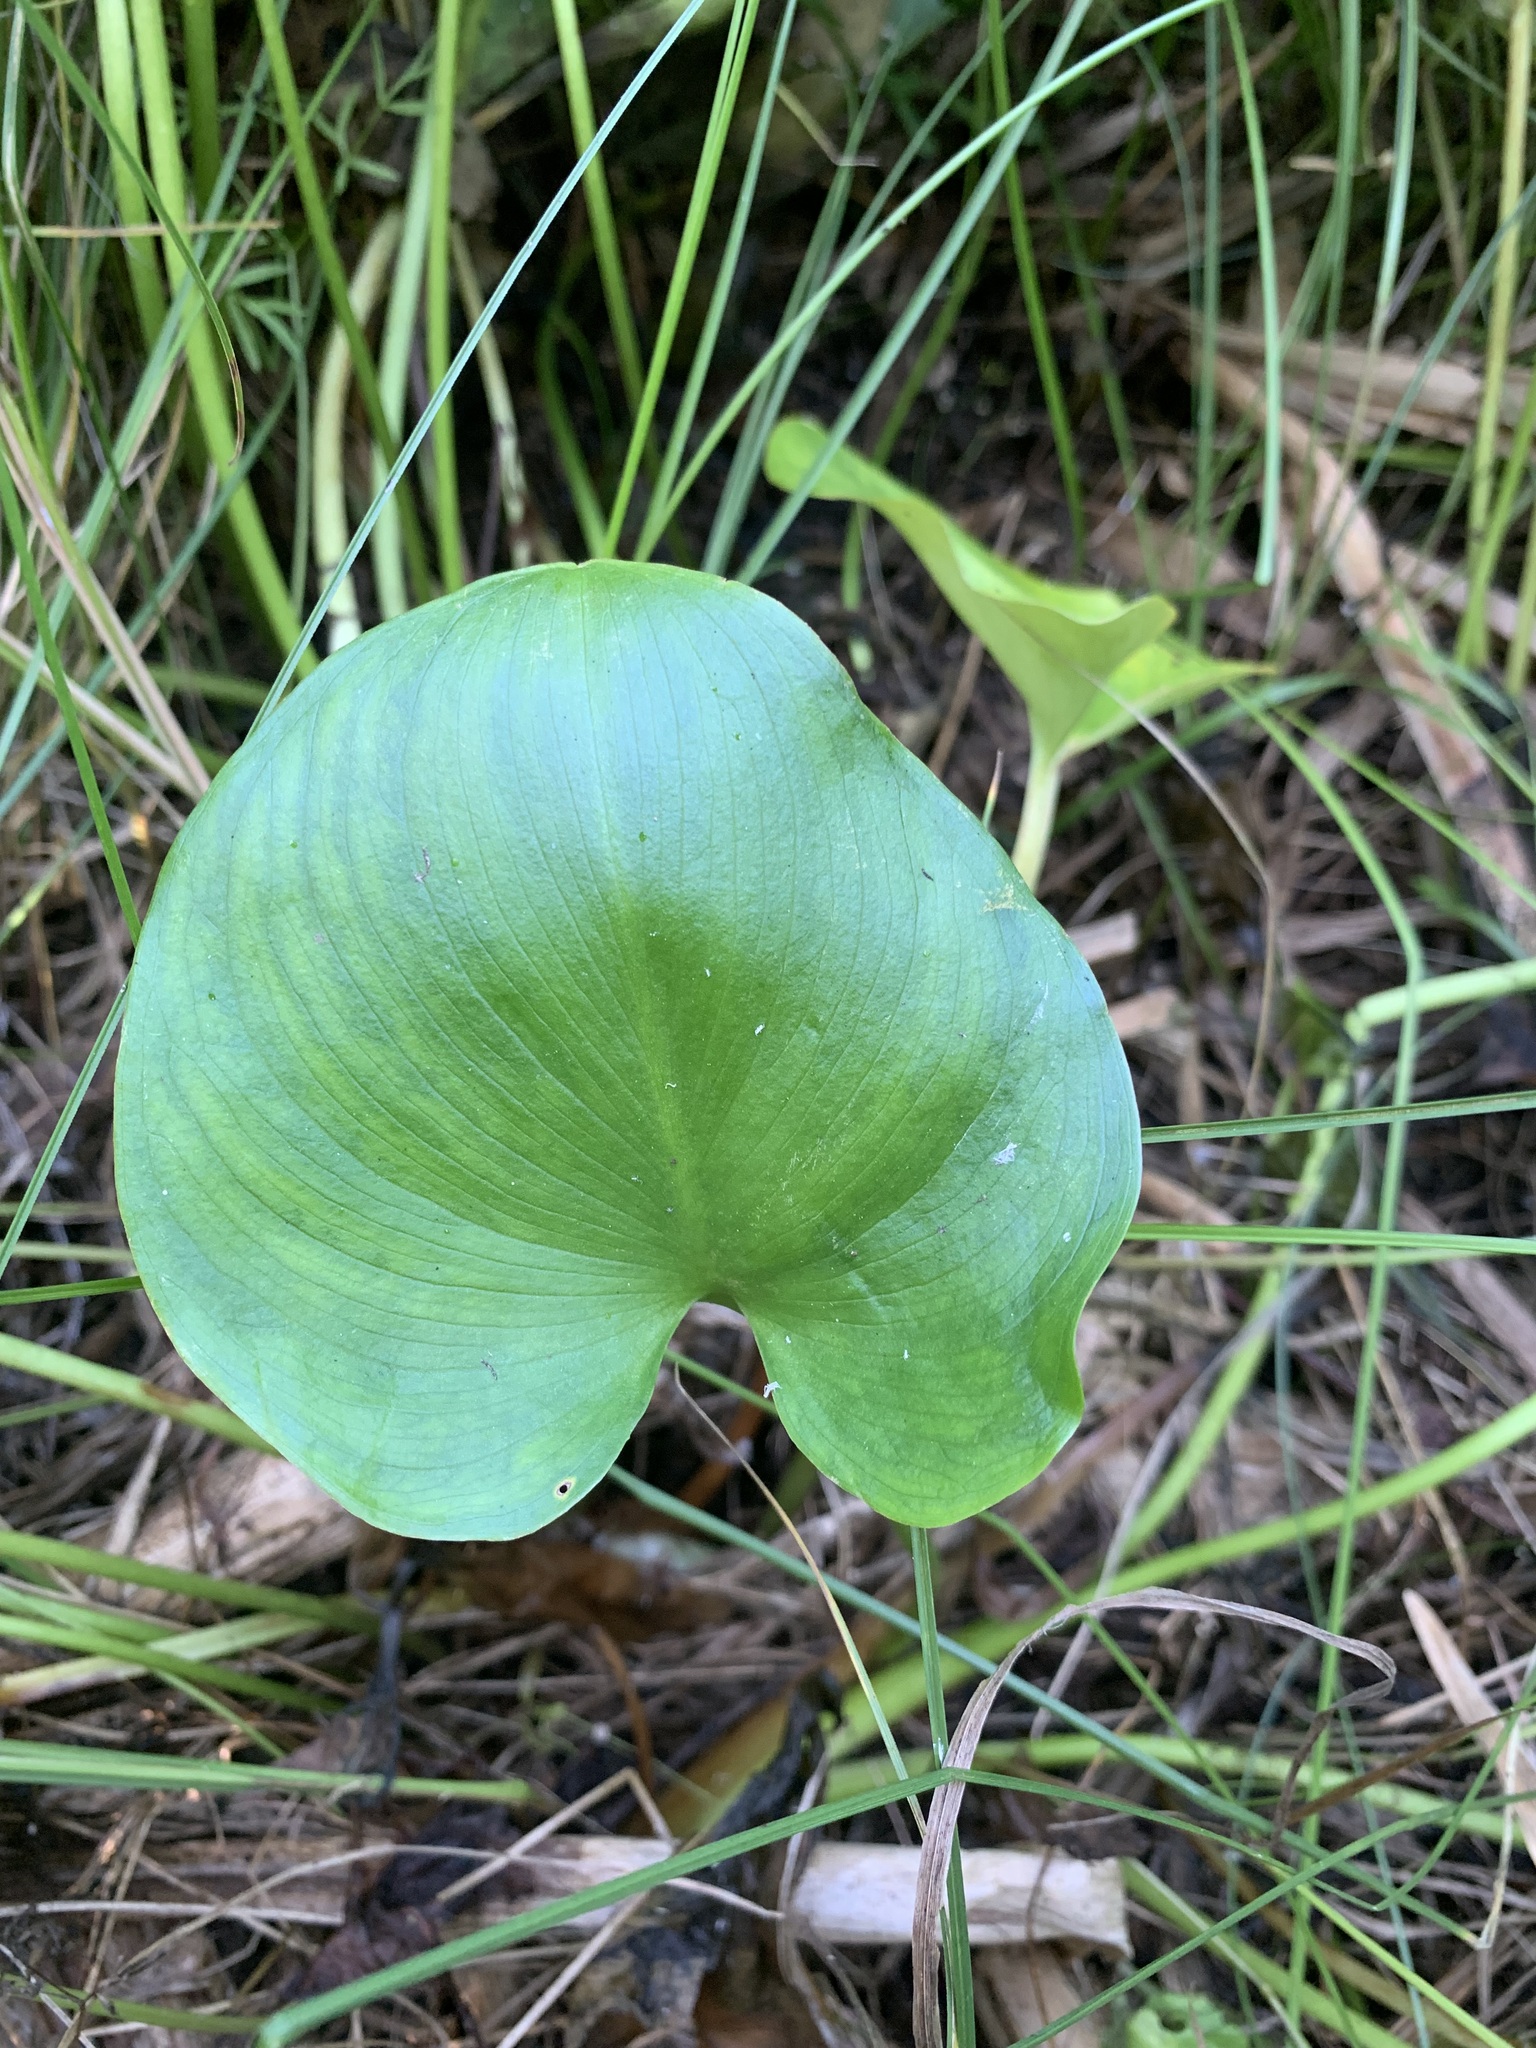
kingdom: Plantae
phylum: Tracheophyta
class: Liliopsida
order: Alismatales
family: Araceae
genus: Calla
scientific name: Calla palustris
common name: Bog arum
